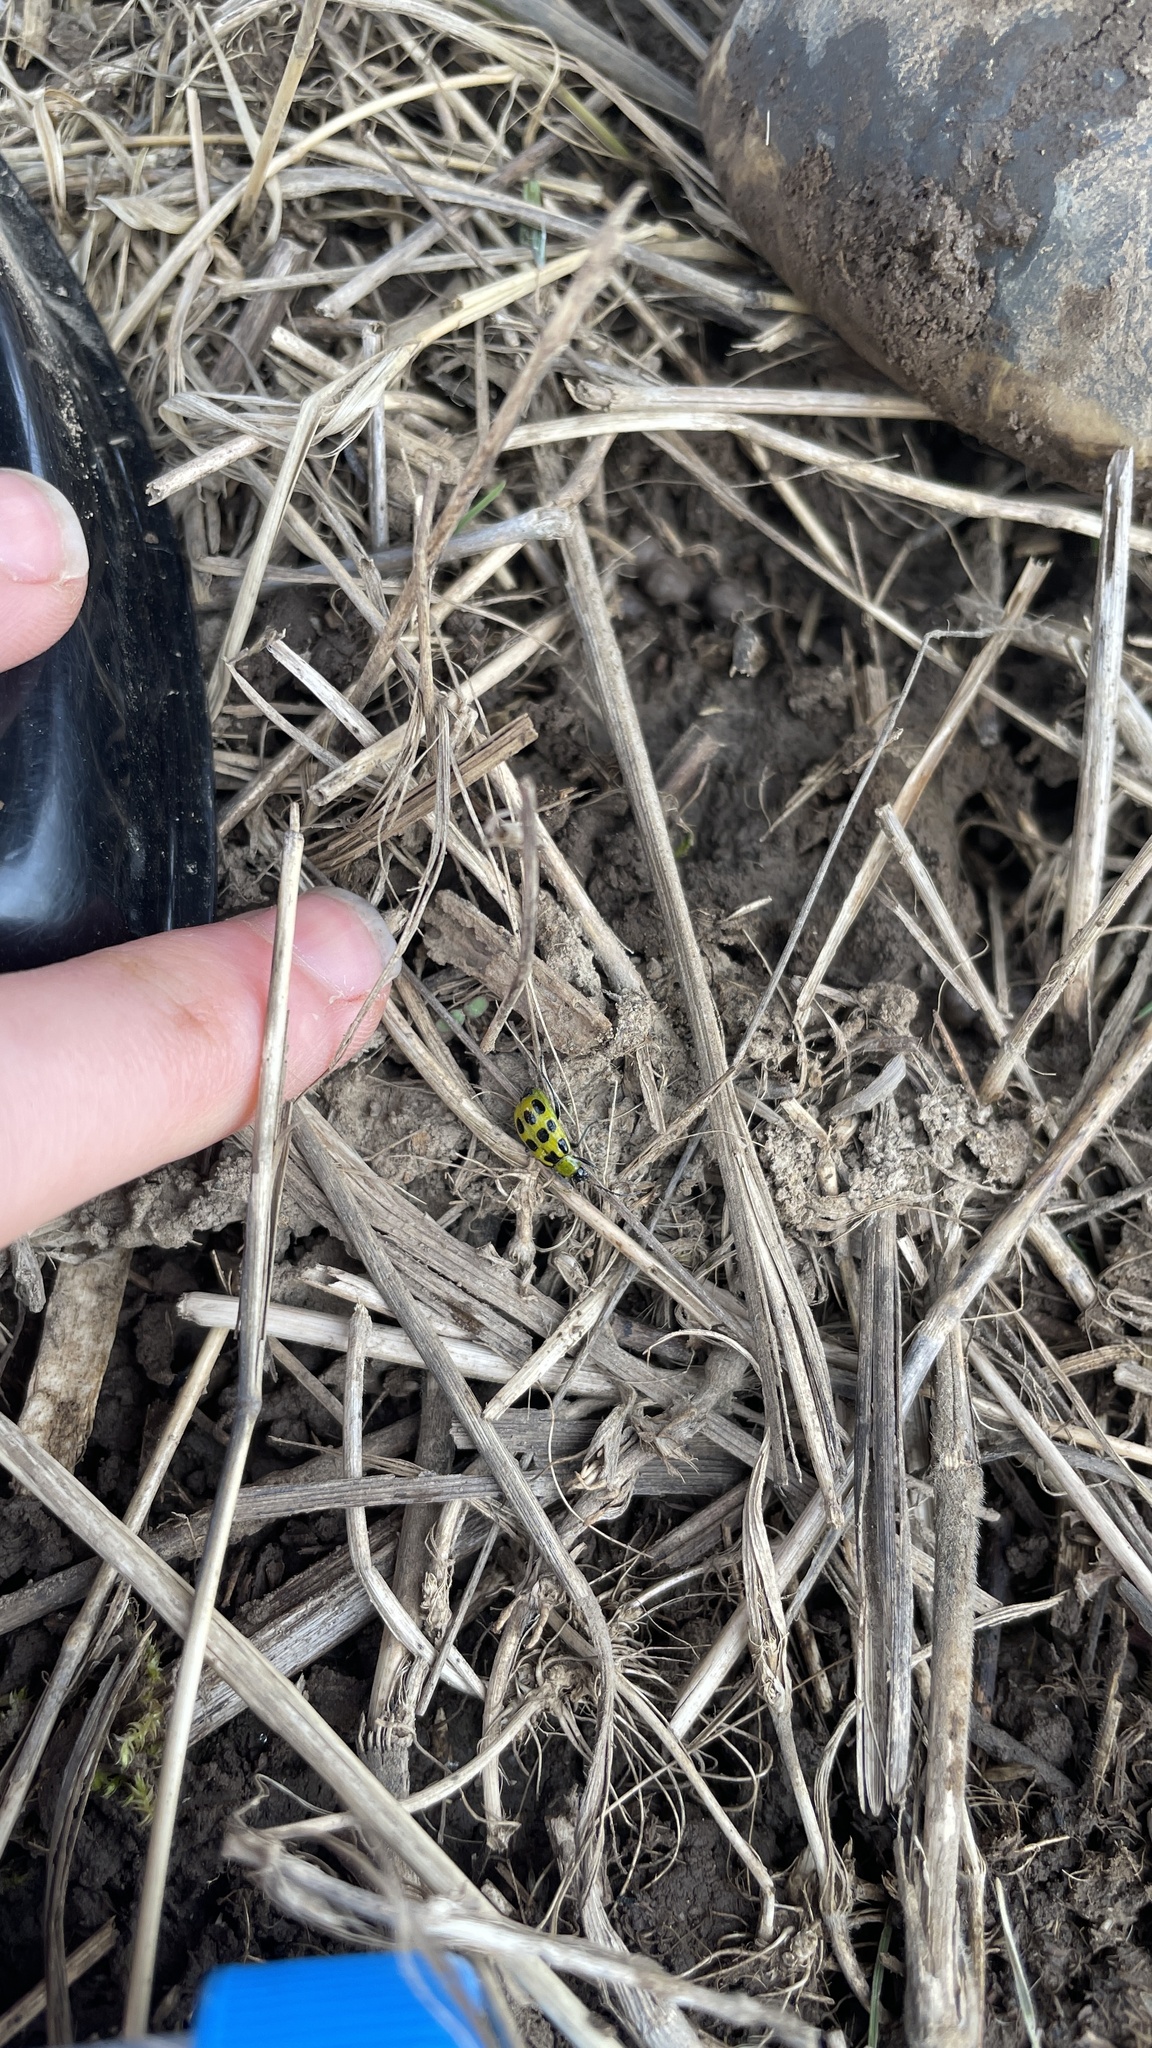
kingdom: Animalia
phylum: Arthropoda
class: Insecta
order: Coleoptera
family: Chrysomelidae
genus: Diabrotica
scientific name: Diabrotica undecimpunctata
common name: Spotted cucumber beetle
